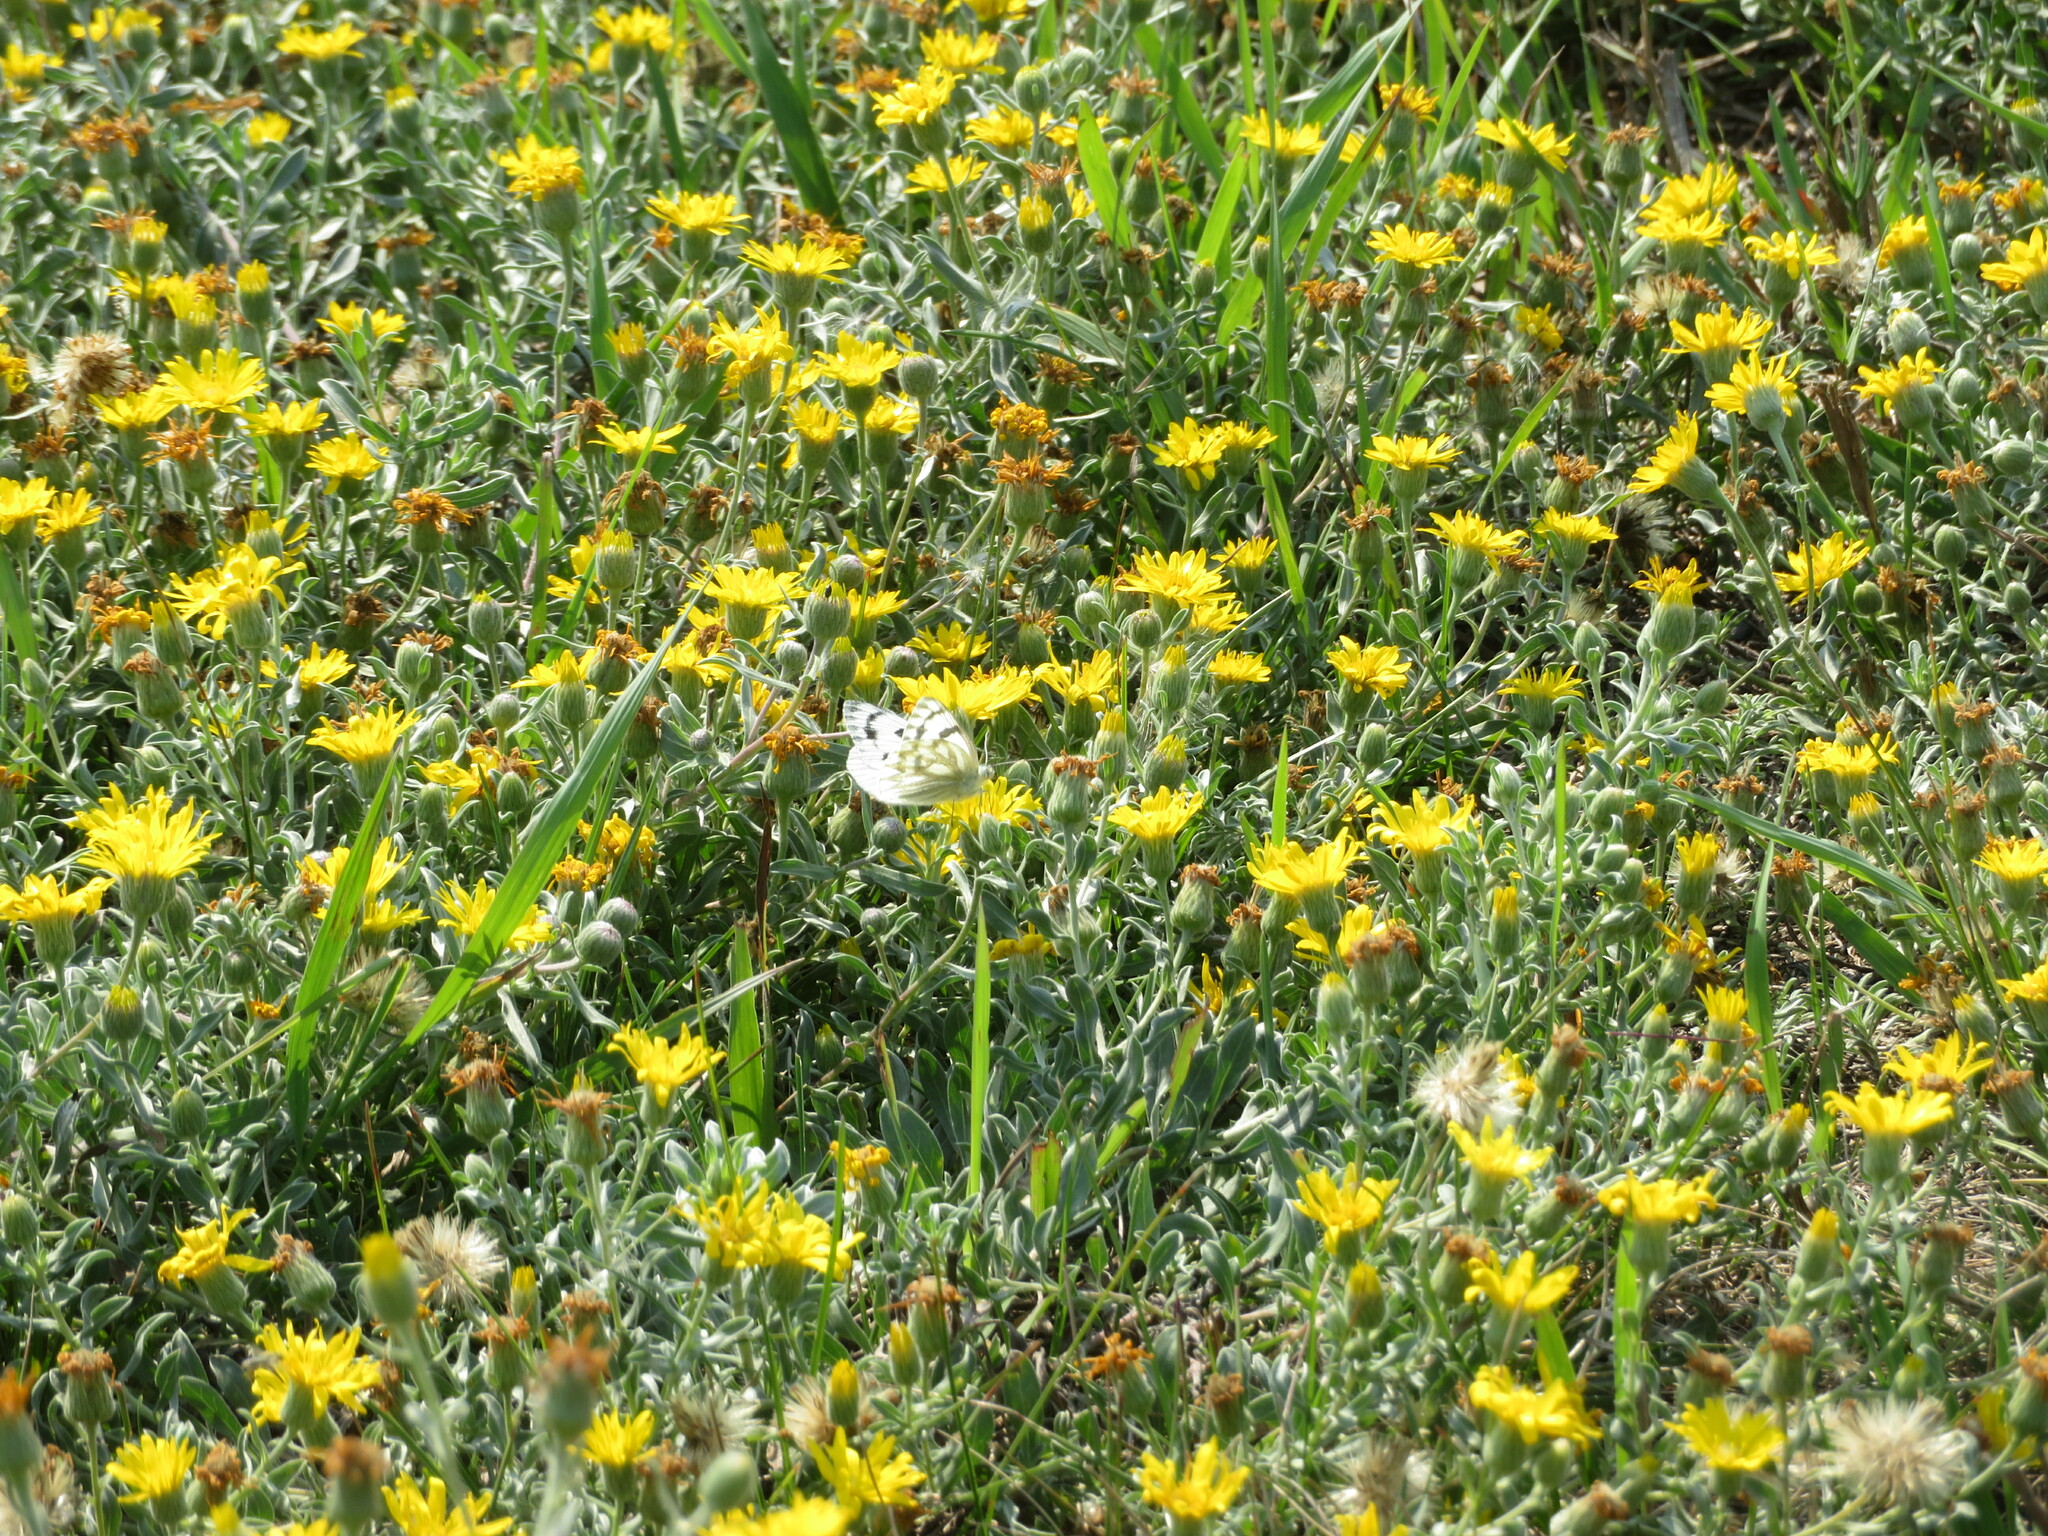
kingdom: Animalia
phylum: Arthropoda
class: Insecta
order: Lepidoptera
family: Pieridae
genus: Pontia
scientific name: Pontia occidentalis
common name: Western white
